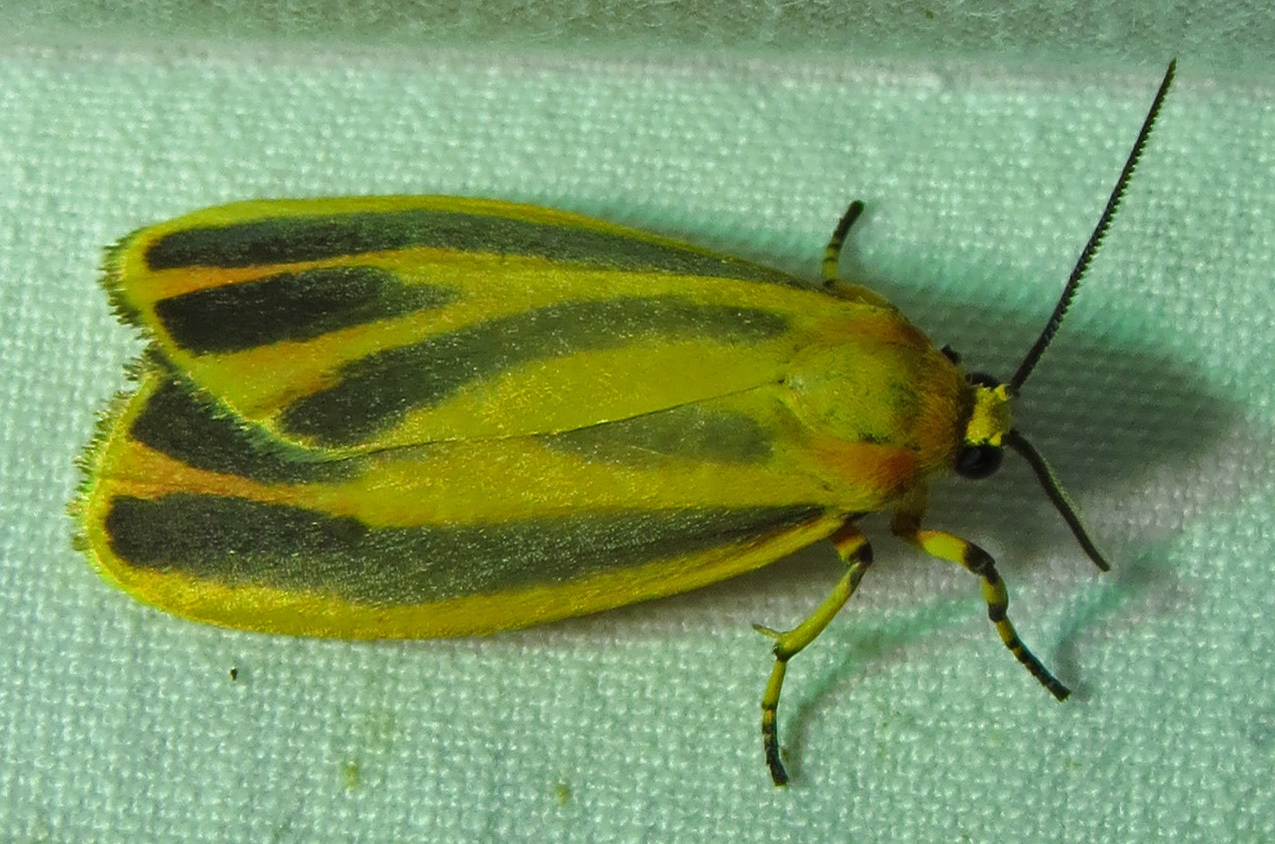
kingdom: Animalia
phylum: Arthropoda
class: Insecta
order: Lepidoptera
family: Erebidae
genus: Hypoprepia
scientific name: Hypoprepia fucosa
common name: Painted lichen moth
